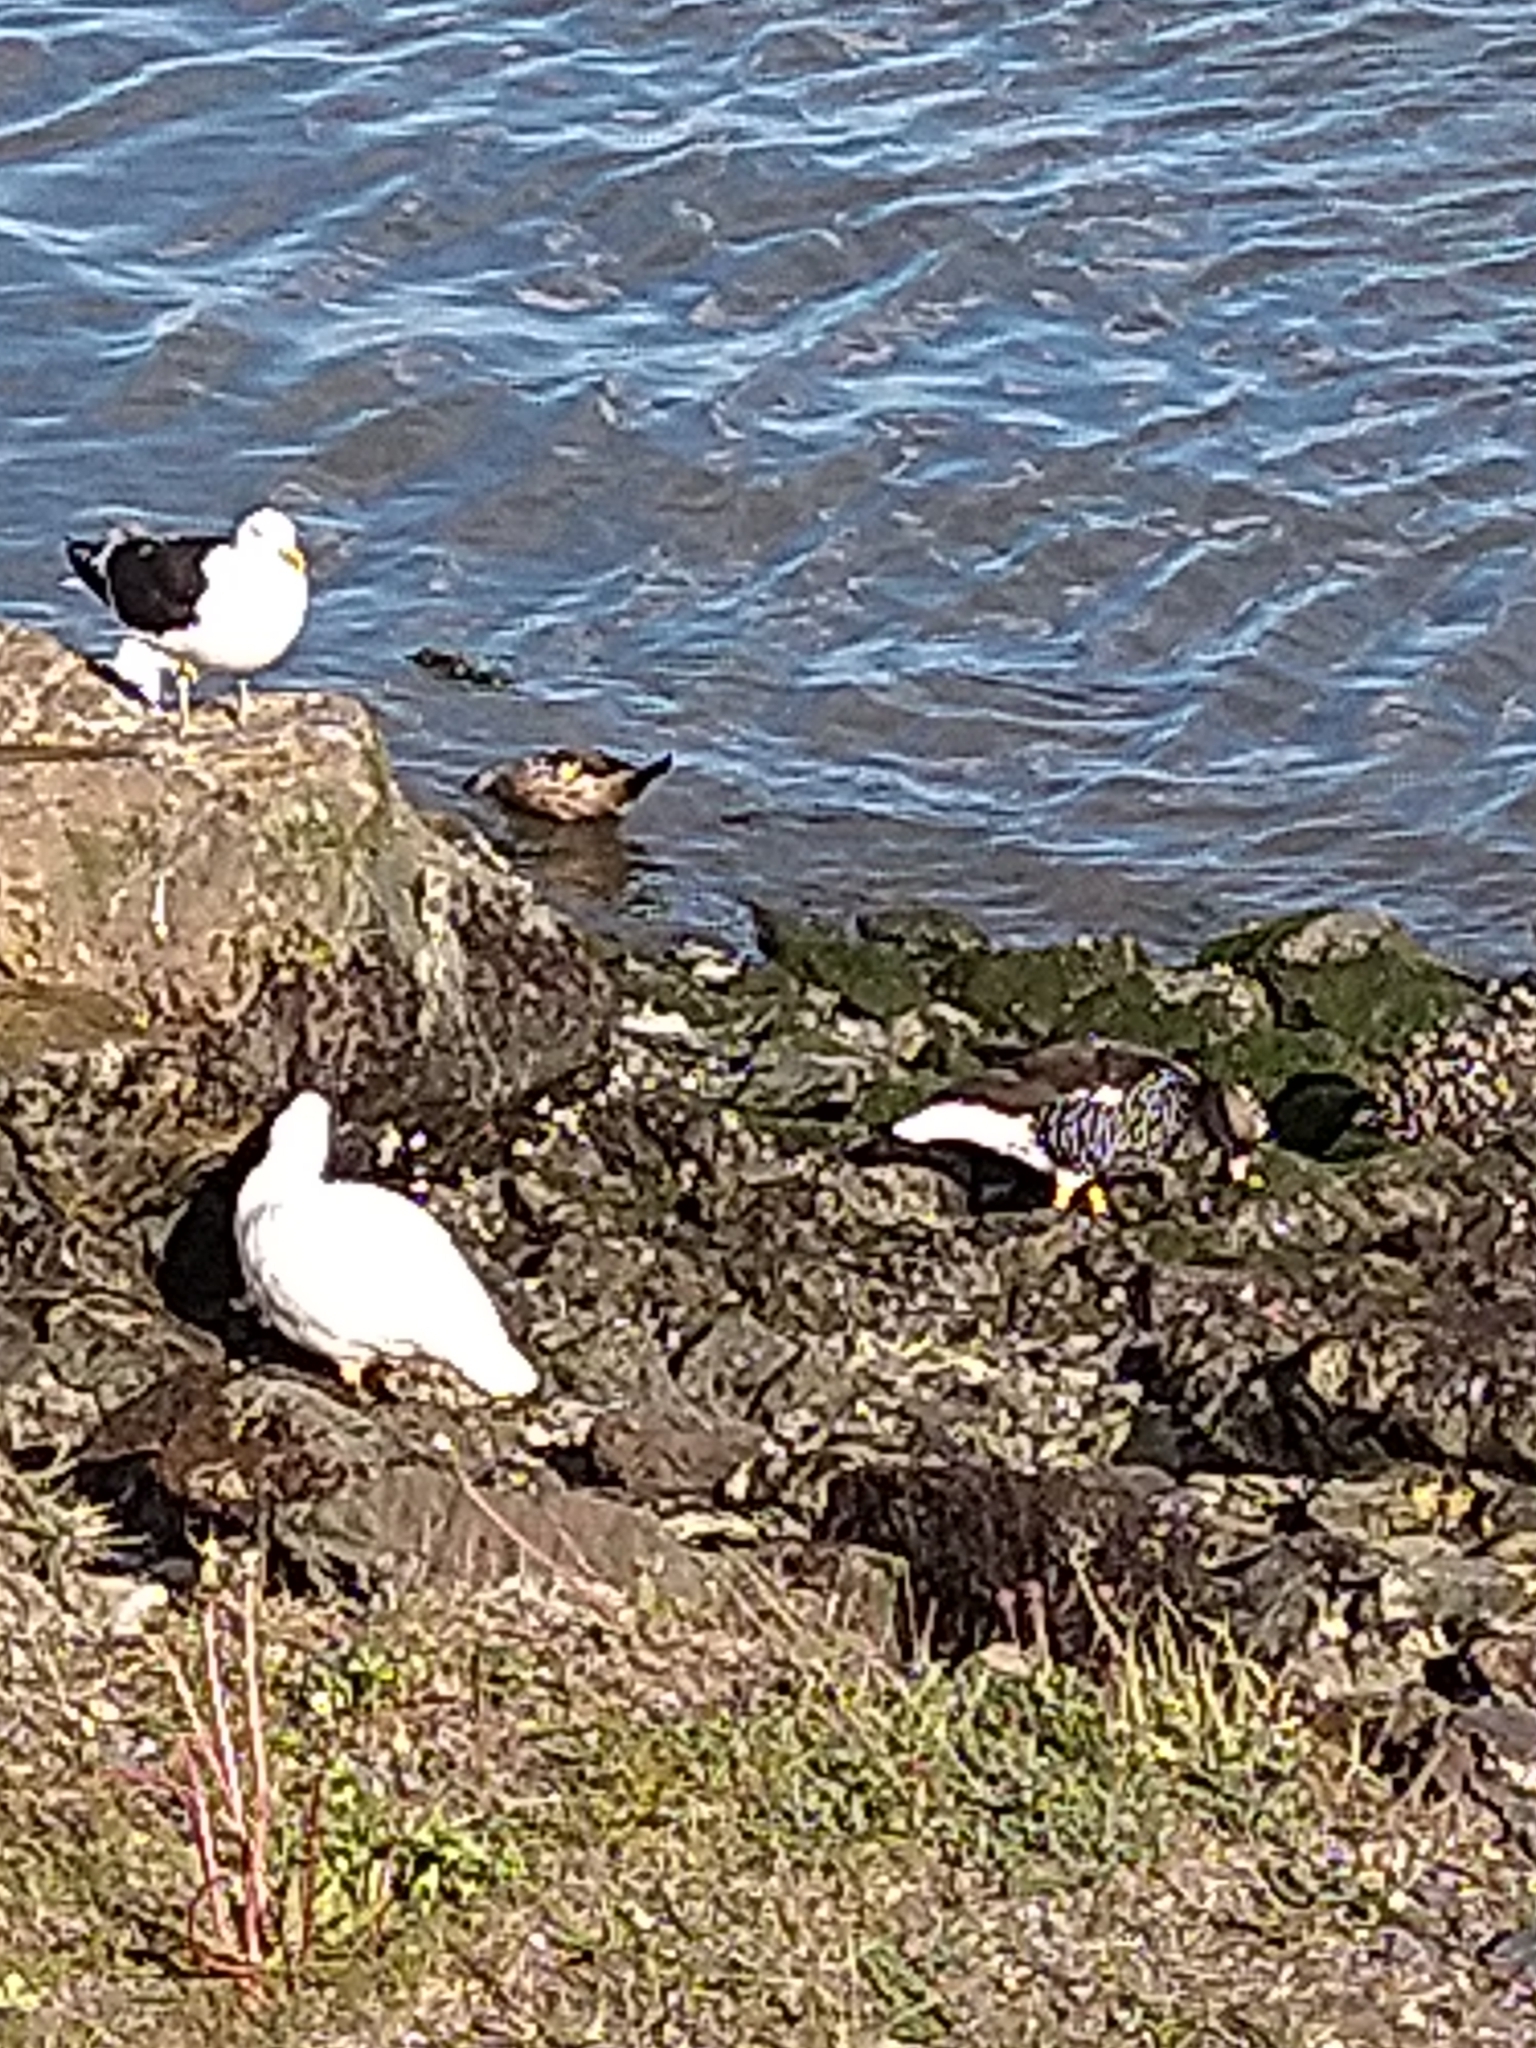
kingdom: Animalia
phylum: Chordata
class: Aves
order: Anseriformes
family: Anatidae
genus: Chloephaga
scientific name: Chloephaga hybrida
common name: Kelp goose
